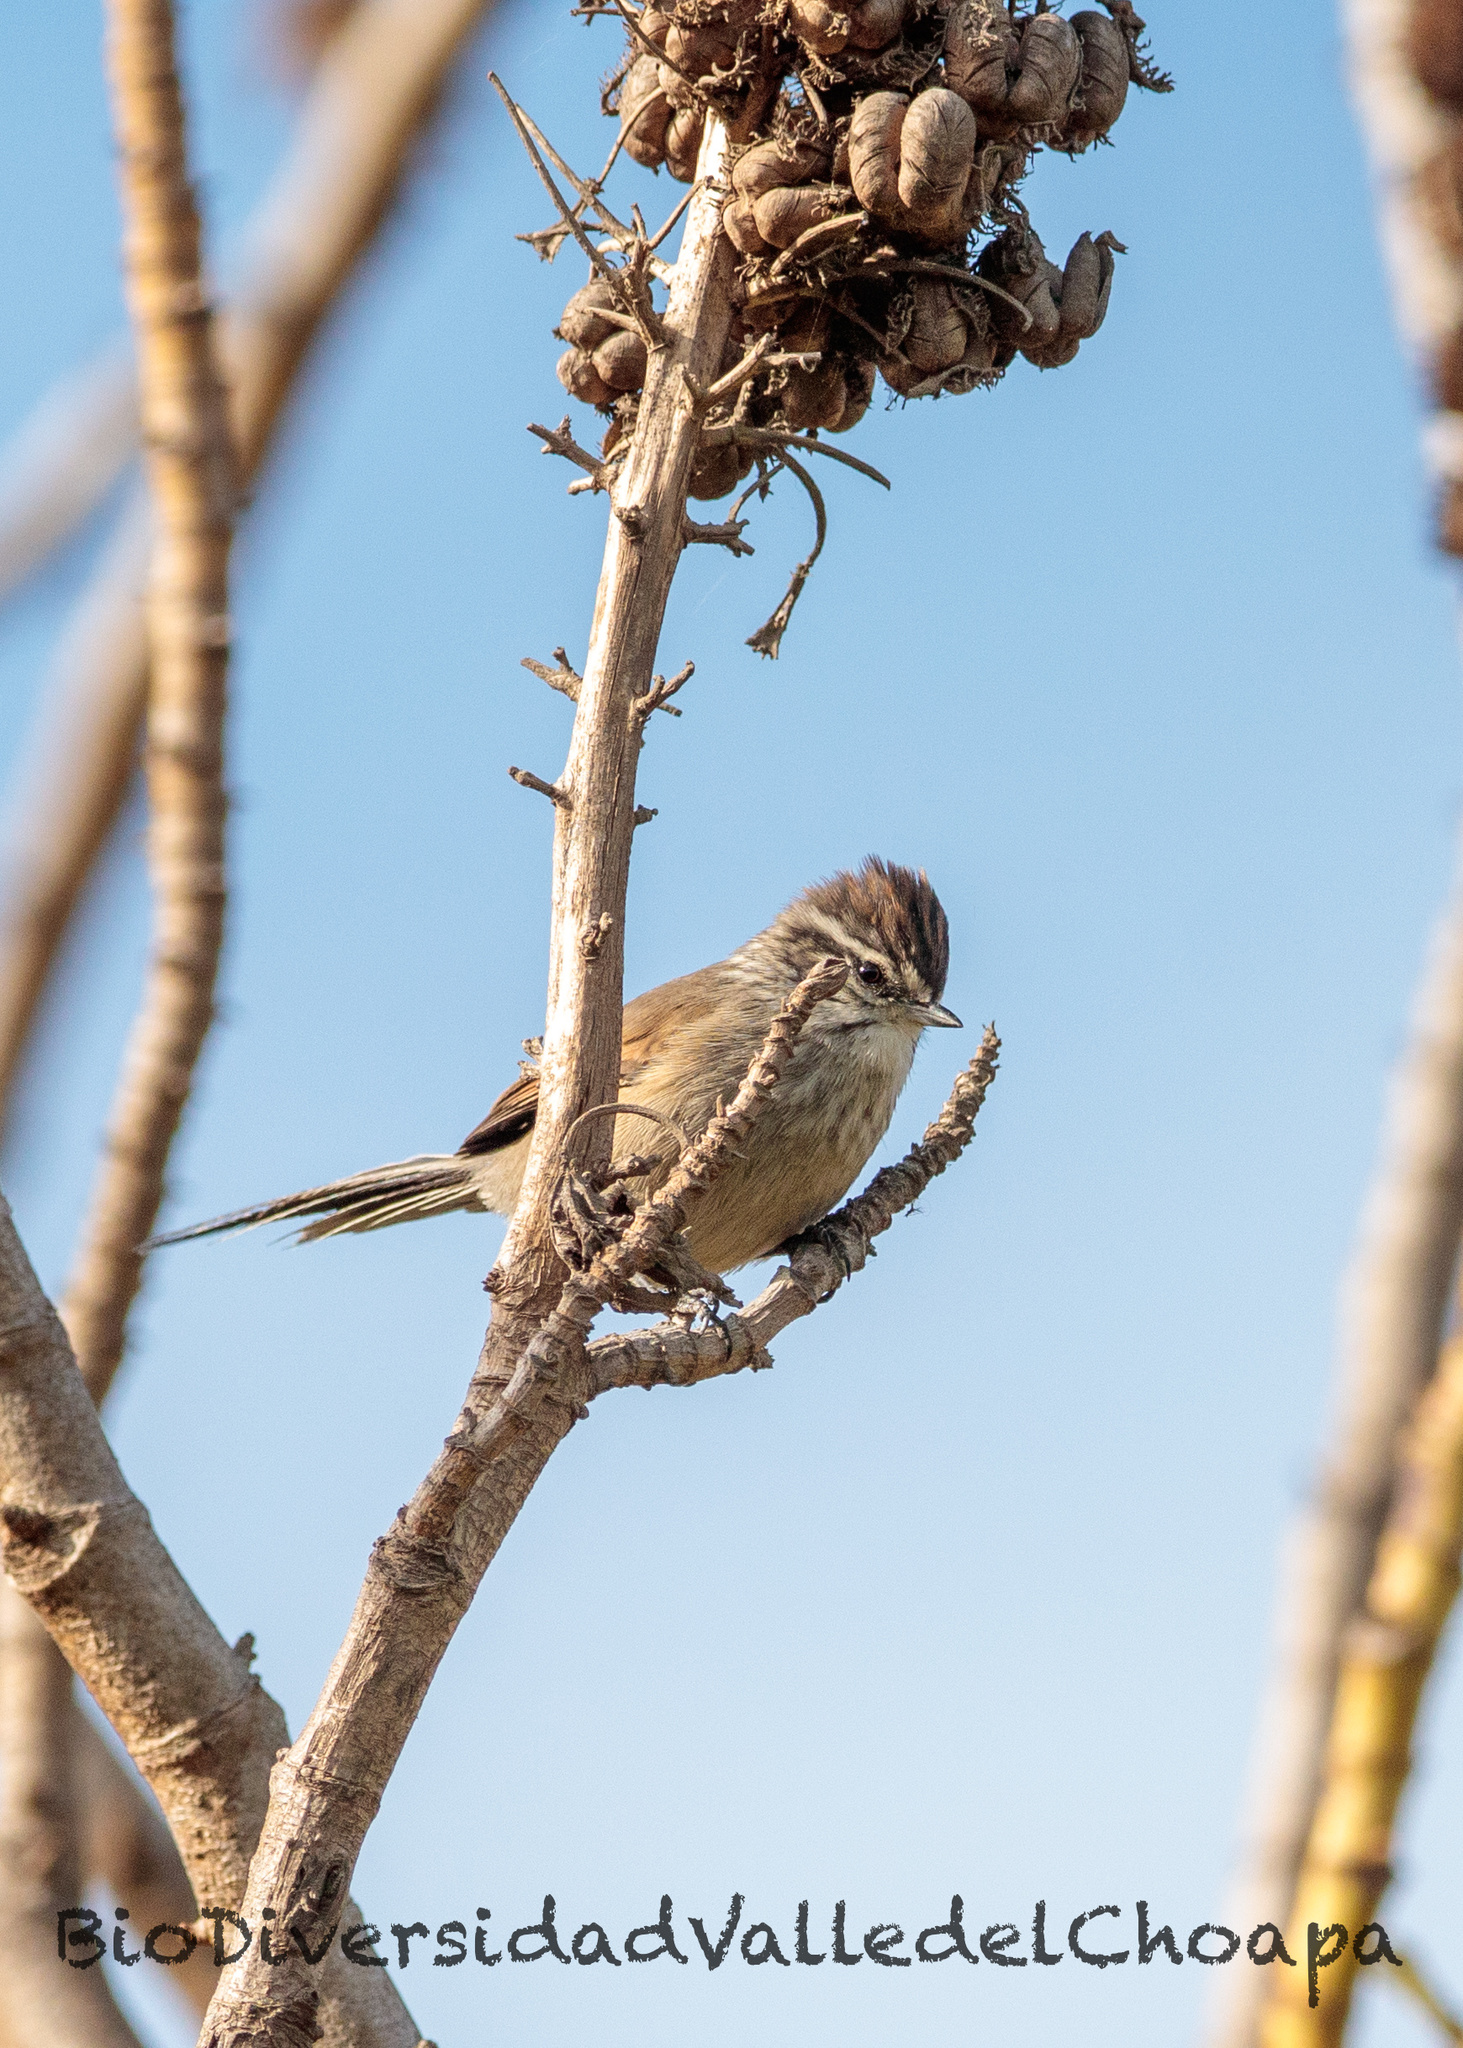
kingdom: Animalia
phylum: Chordata
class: Aves
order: Passeriformes
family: Furnariidae
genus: Leptasthenura
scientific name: Leptasthenura aegithaloides
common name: Plain-mantled tit-spinetail
